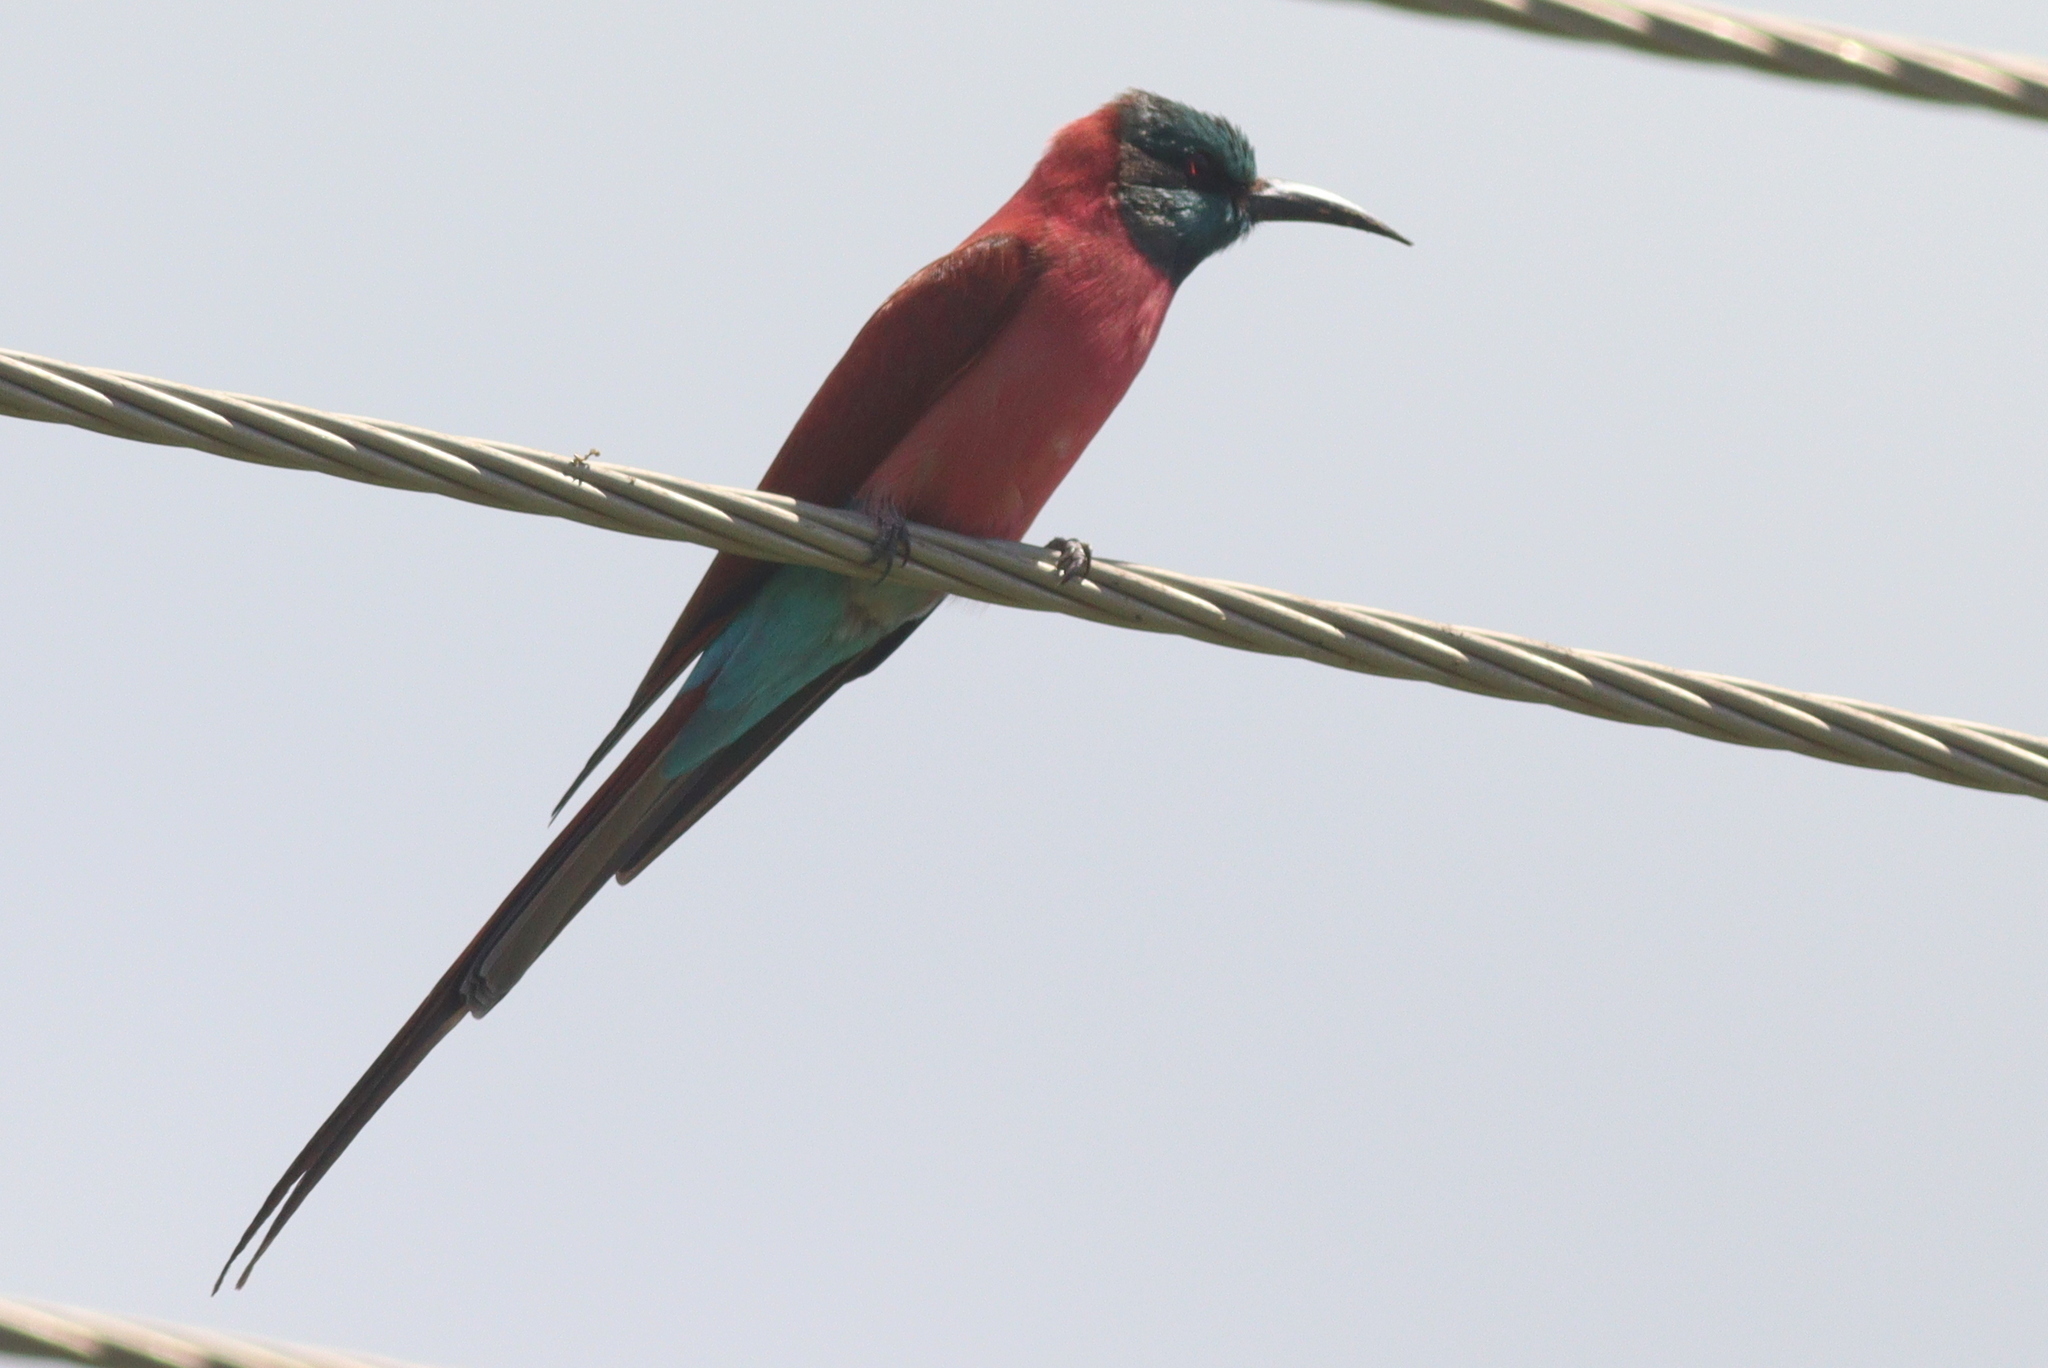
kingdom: Animalia
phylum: Chordata
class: Aves
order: Coraciiformes
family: Meropidae
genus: Merops
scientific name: Merops nubicus
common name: Northern carmine bee-eater
